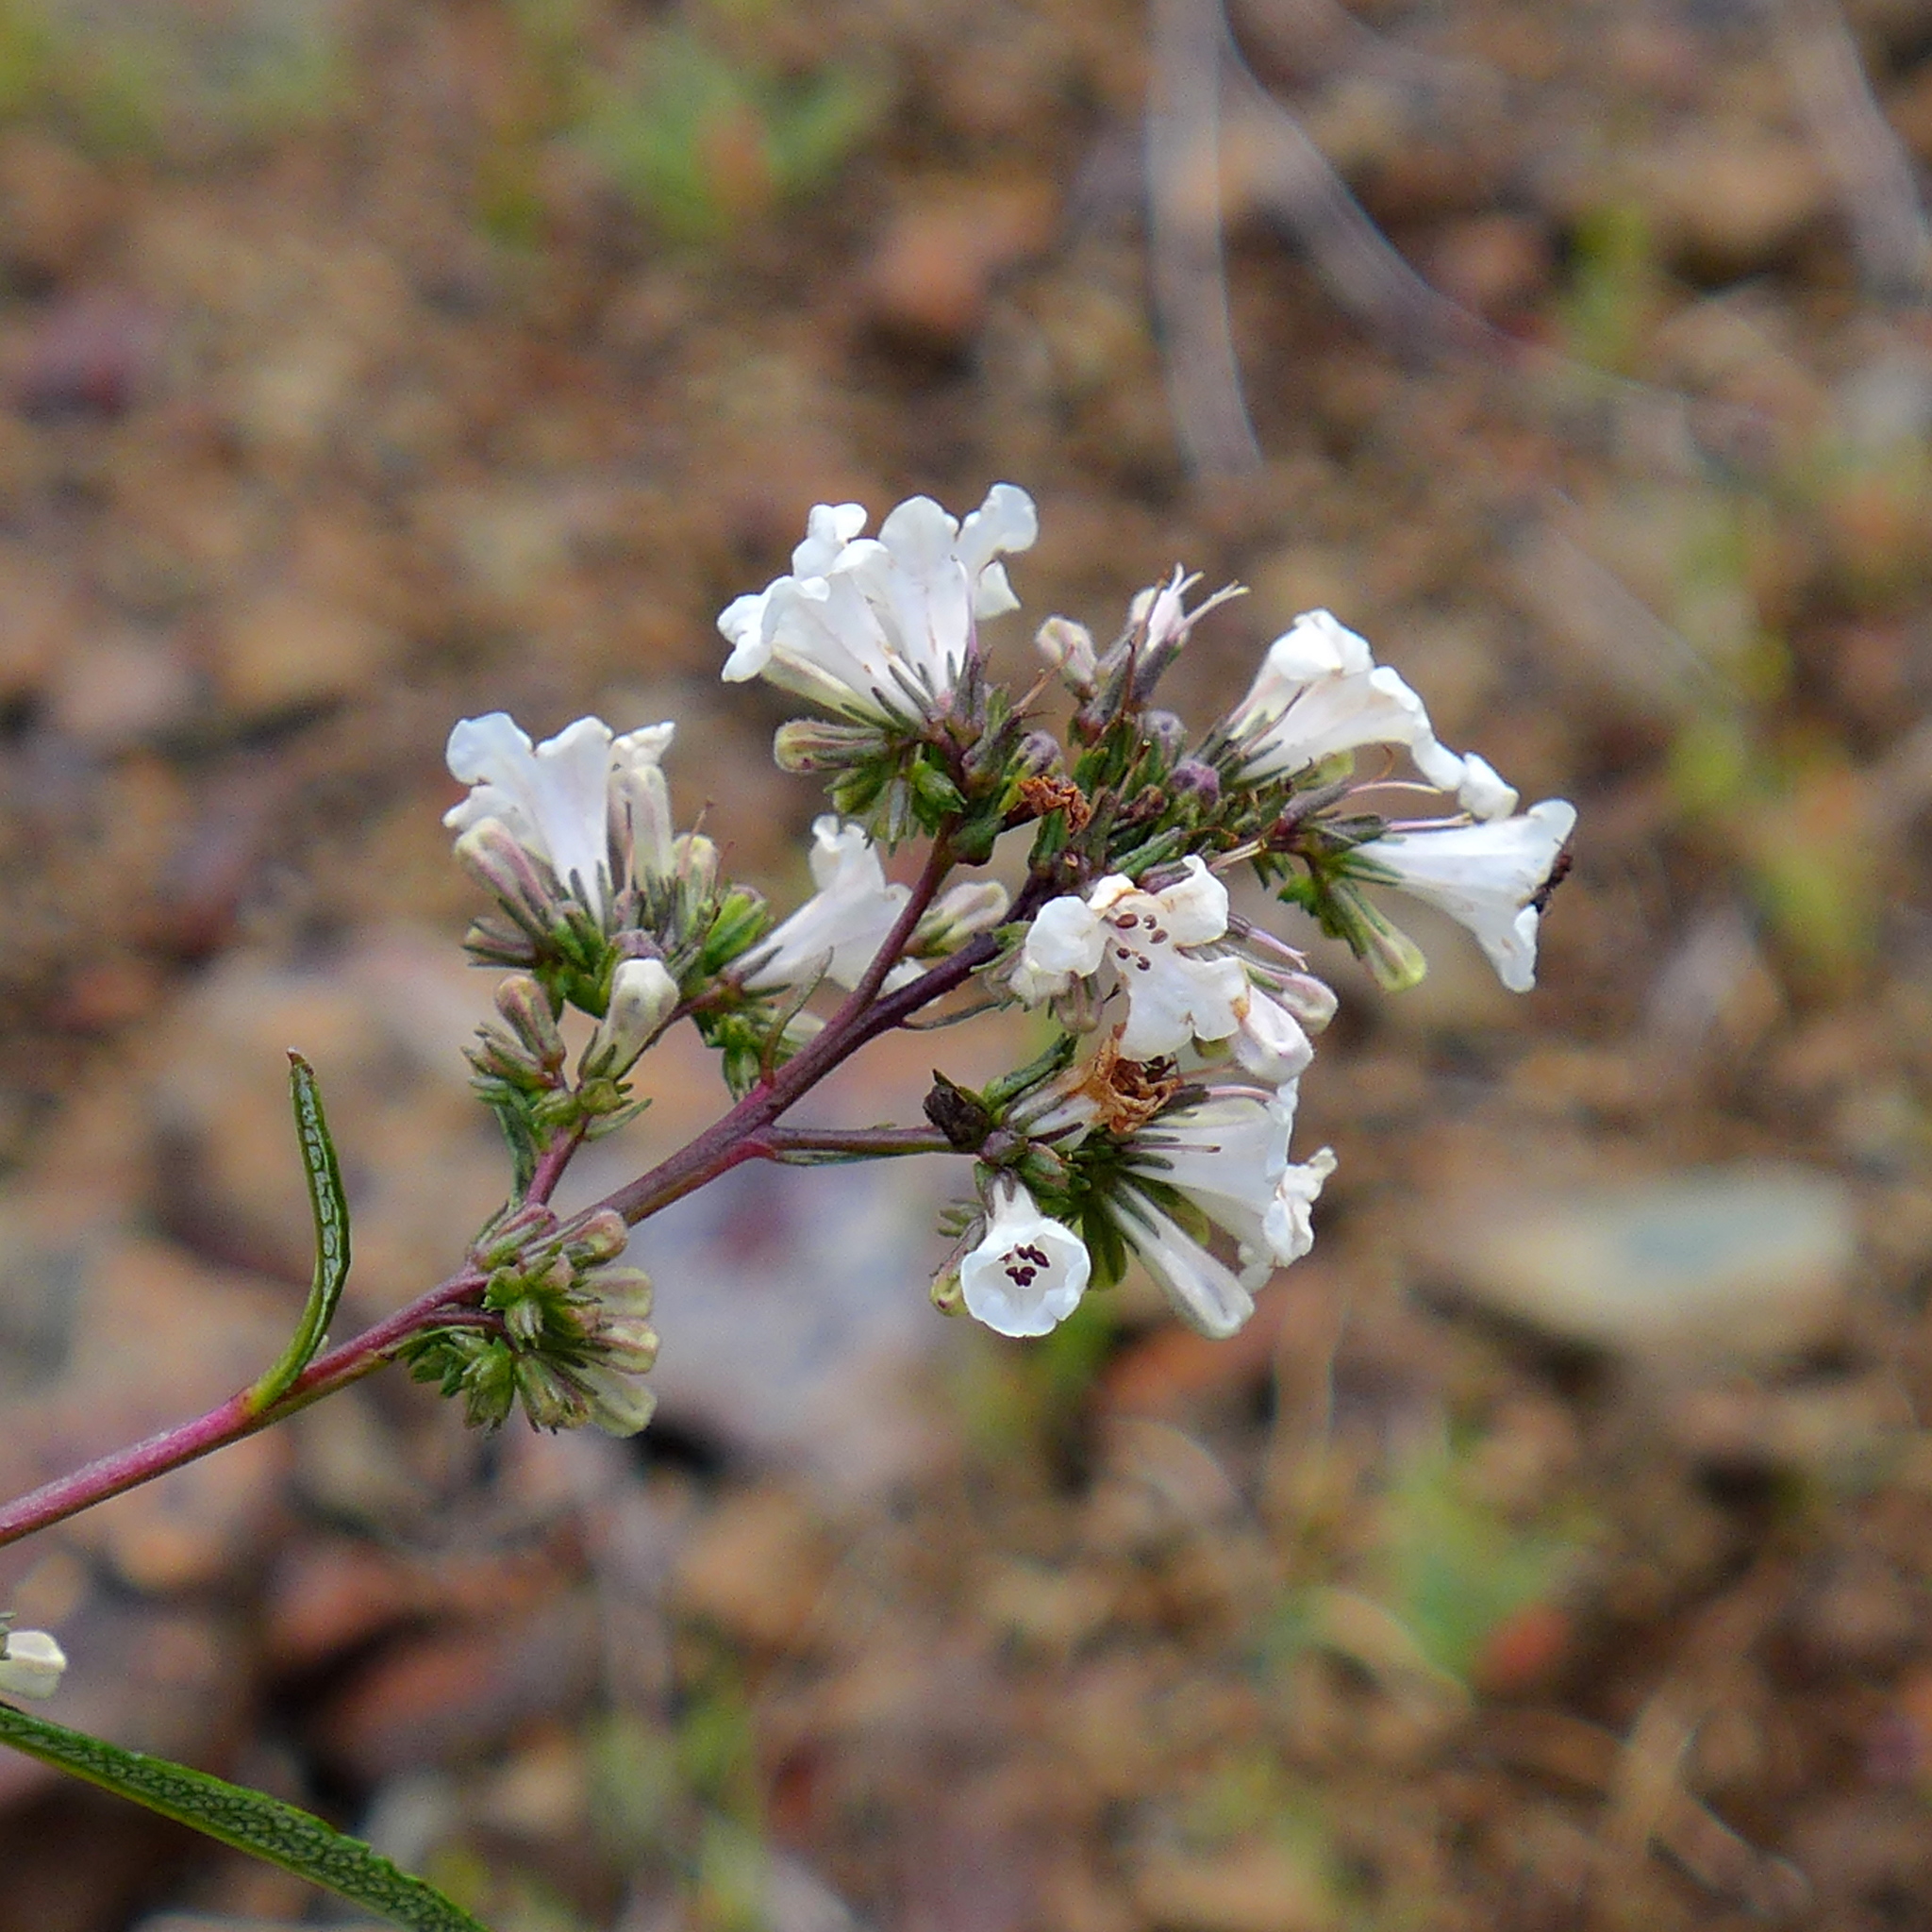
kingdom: Plantae
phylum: Tracheophyta
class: Magnoliopsida
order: Boraginales
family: Namaceae
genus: Eriodictyon
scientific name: Eriodictyon californicum
